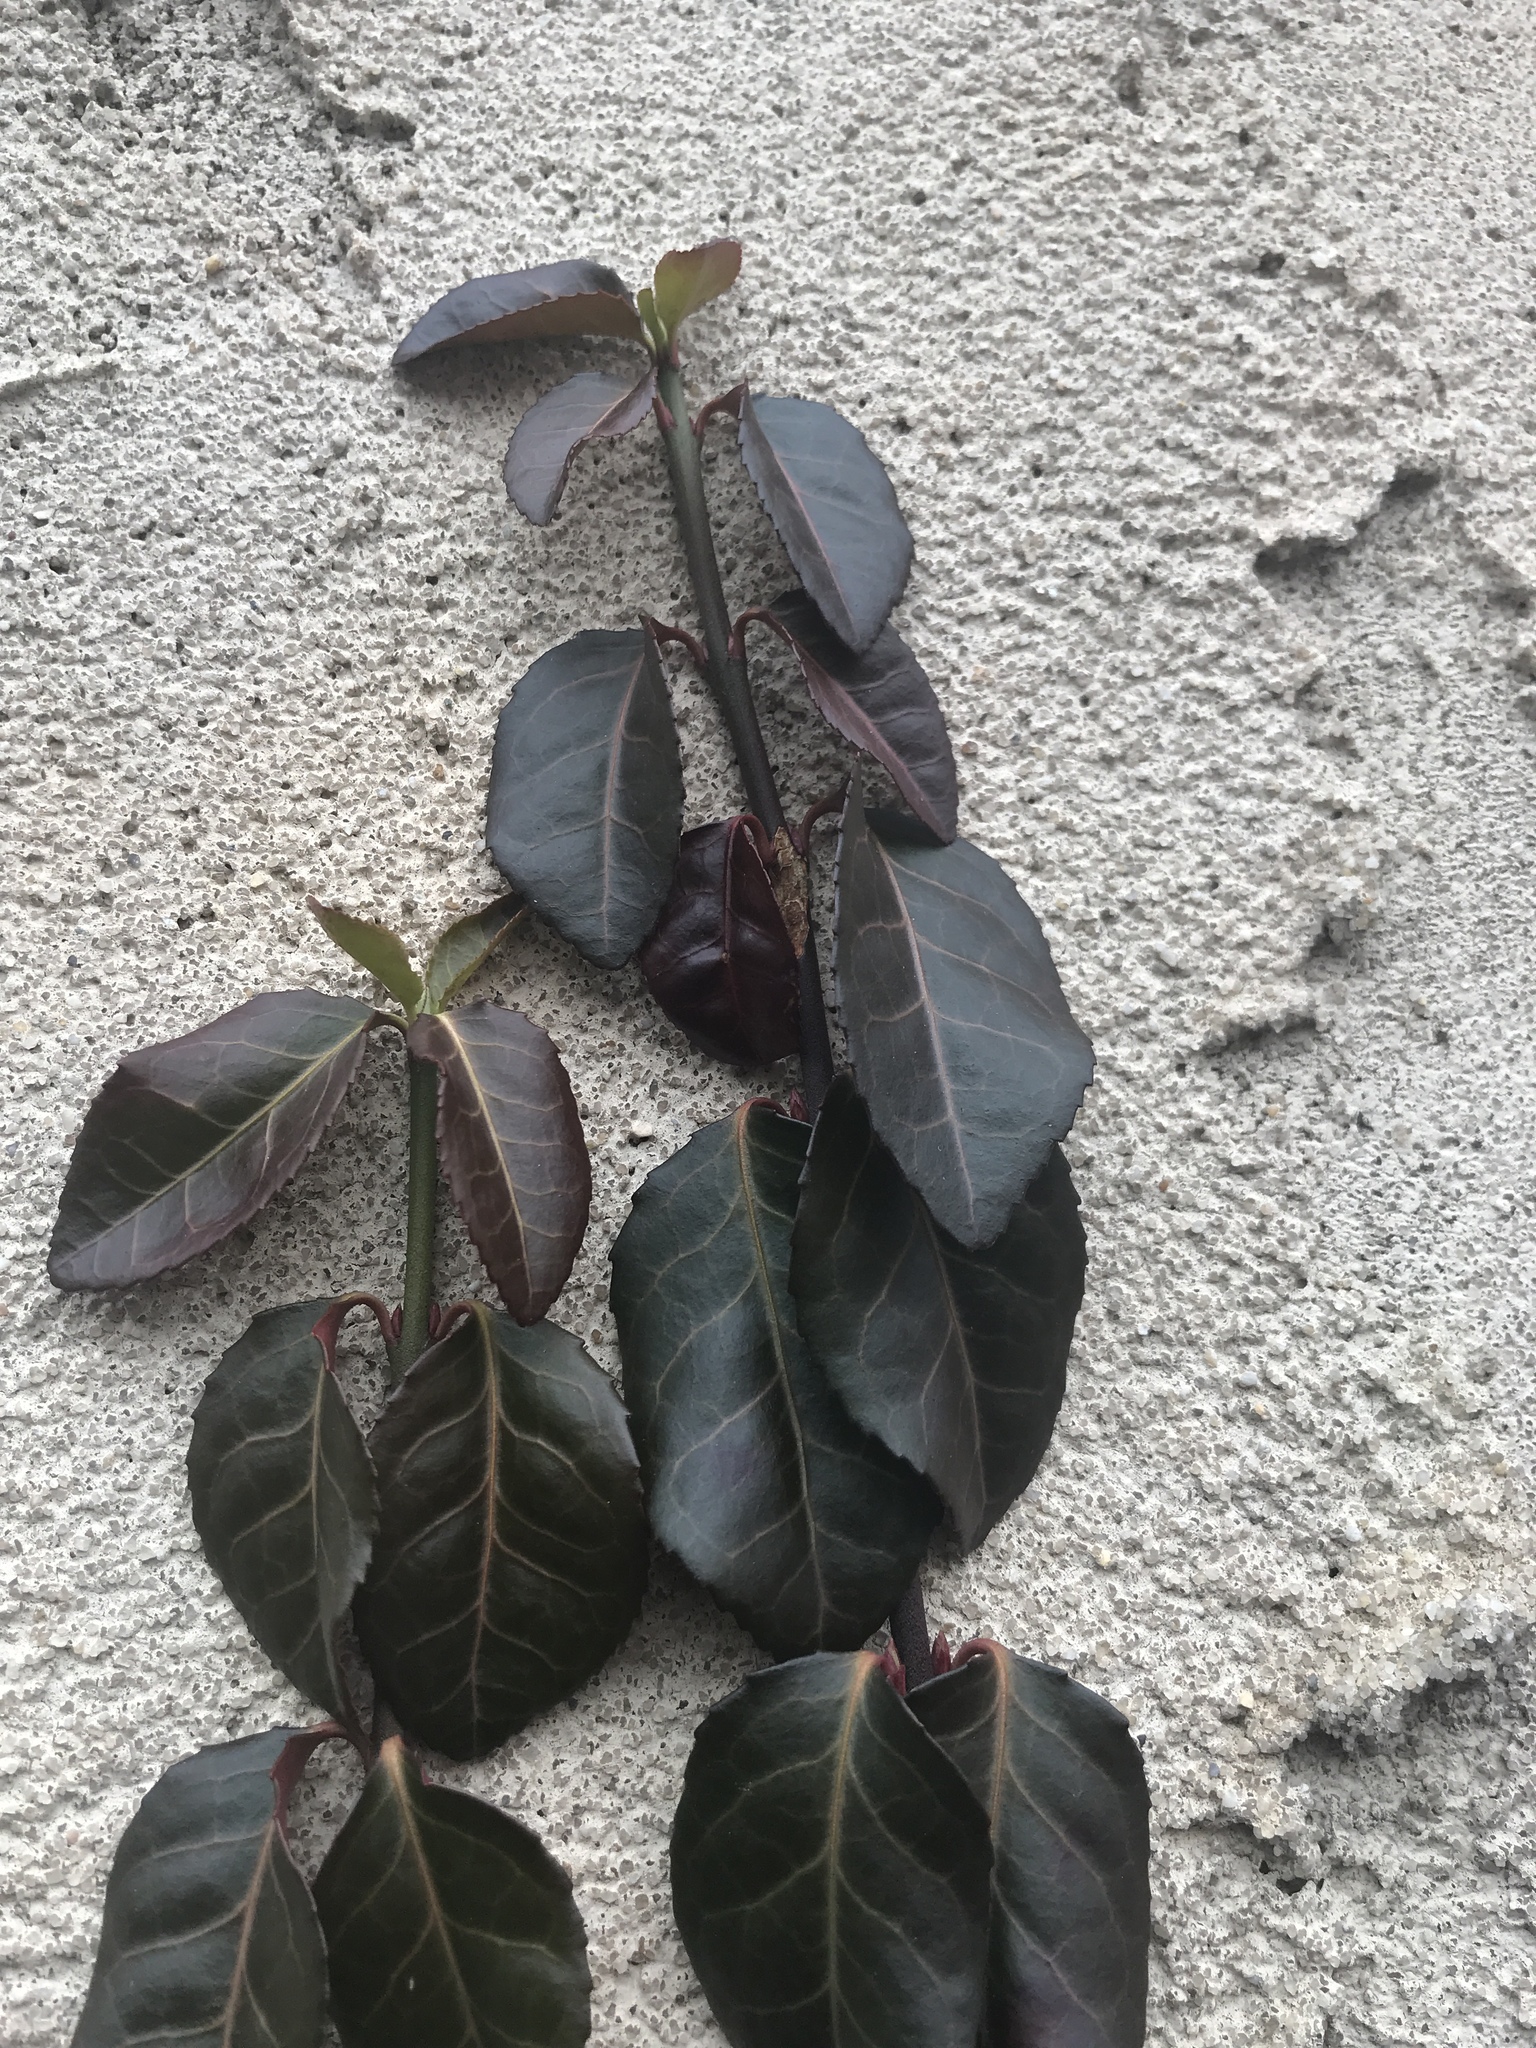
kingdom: Plantae
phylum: Tracheophyta
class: Magnoliopsida
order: Celastrales
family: Celastraceae
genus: Euonymus
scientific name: Euonymus fortunei
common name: Climbing euonymus
